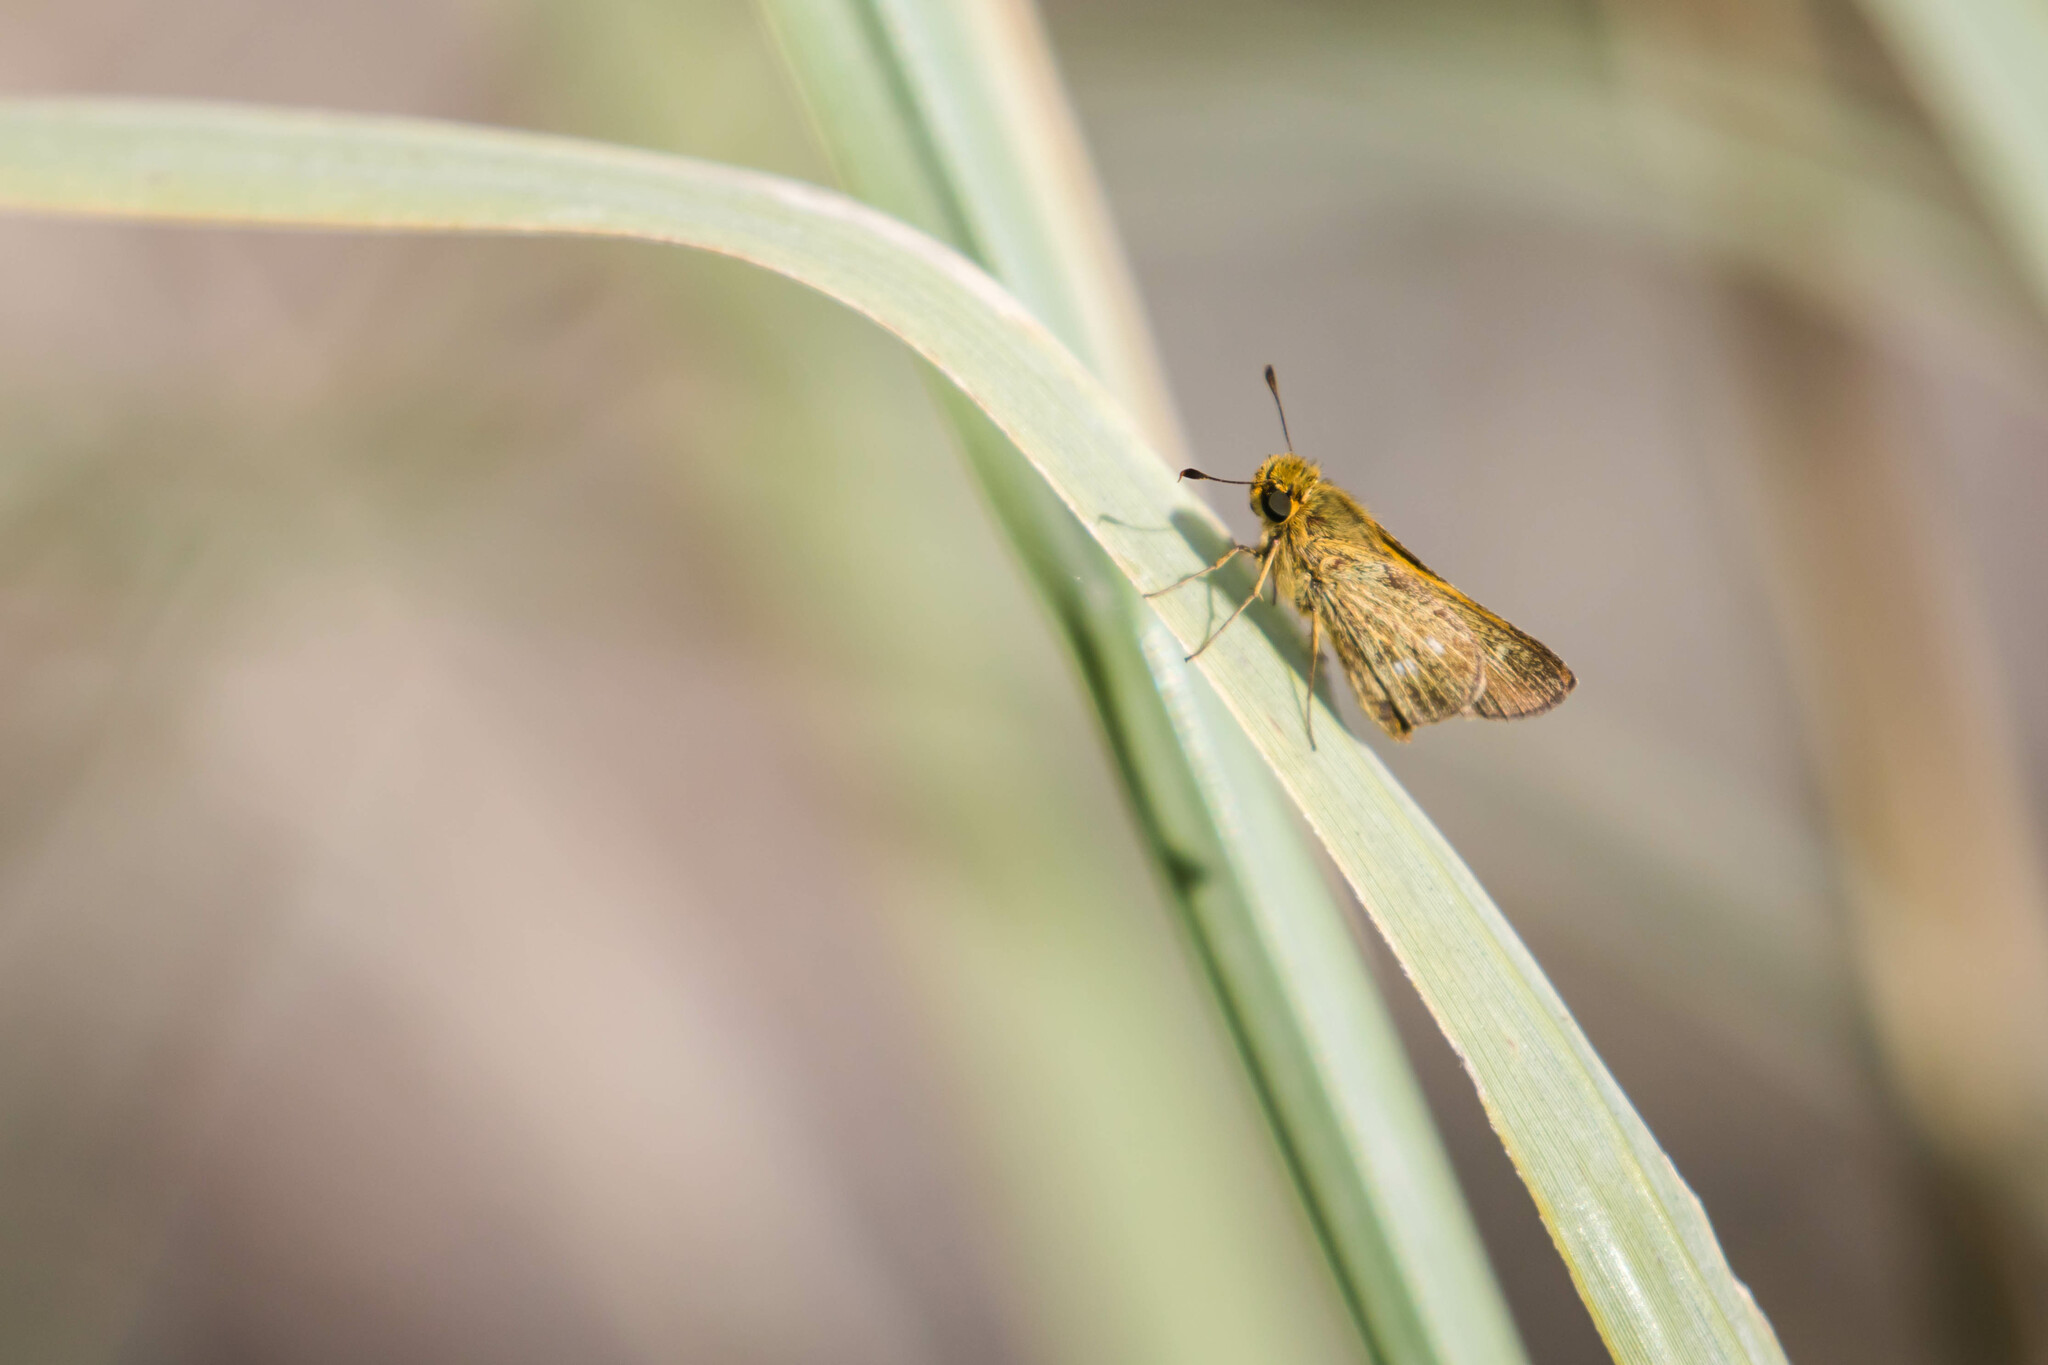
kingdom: Animalia
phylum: Arthropoda
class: Insecta
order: Lepidoptera
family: Hesperiidae
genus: Panoquina
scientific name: Panoquina panoquinoides
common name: Beach skipper
